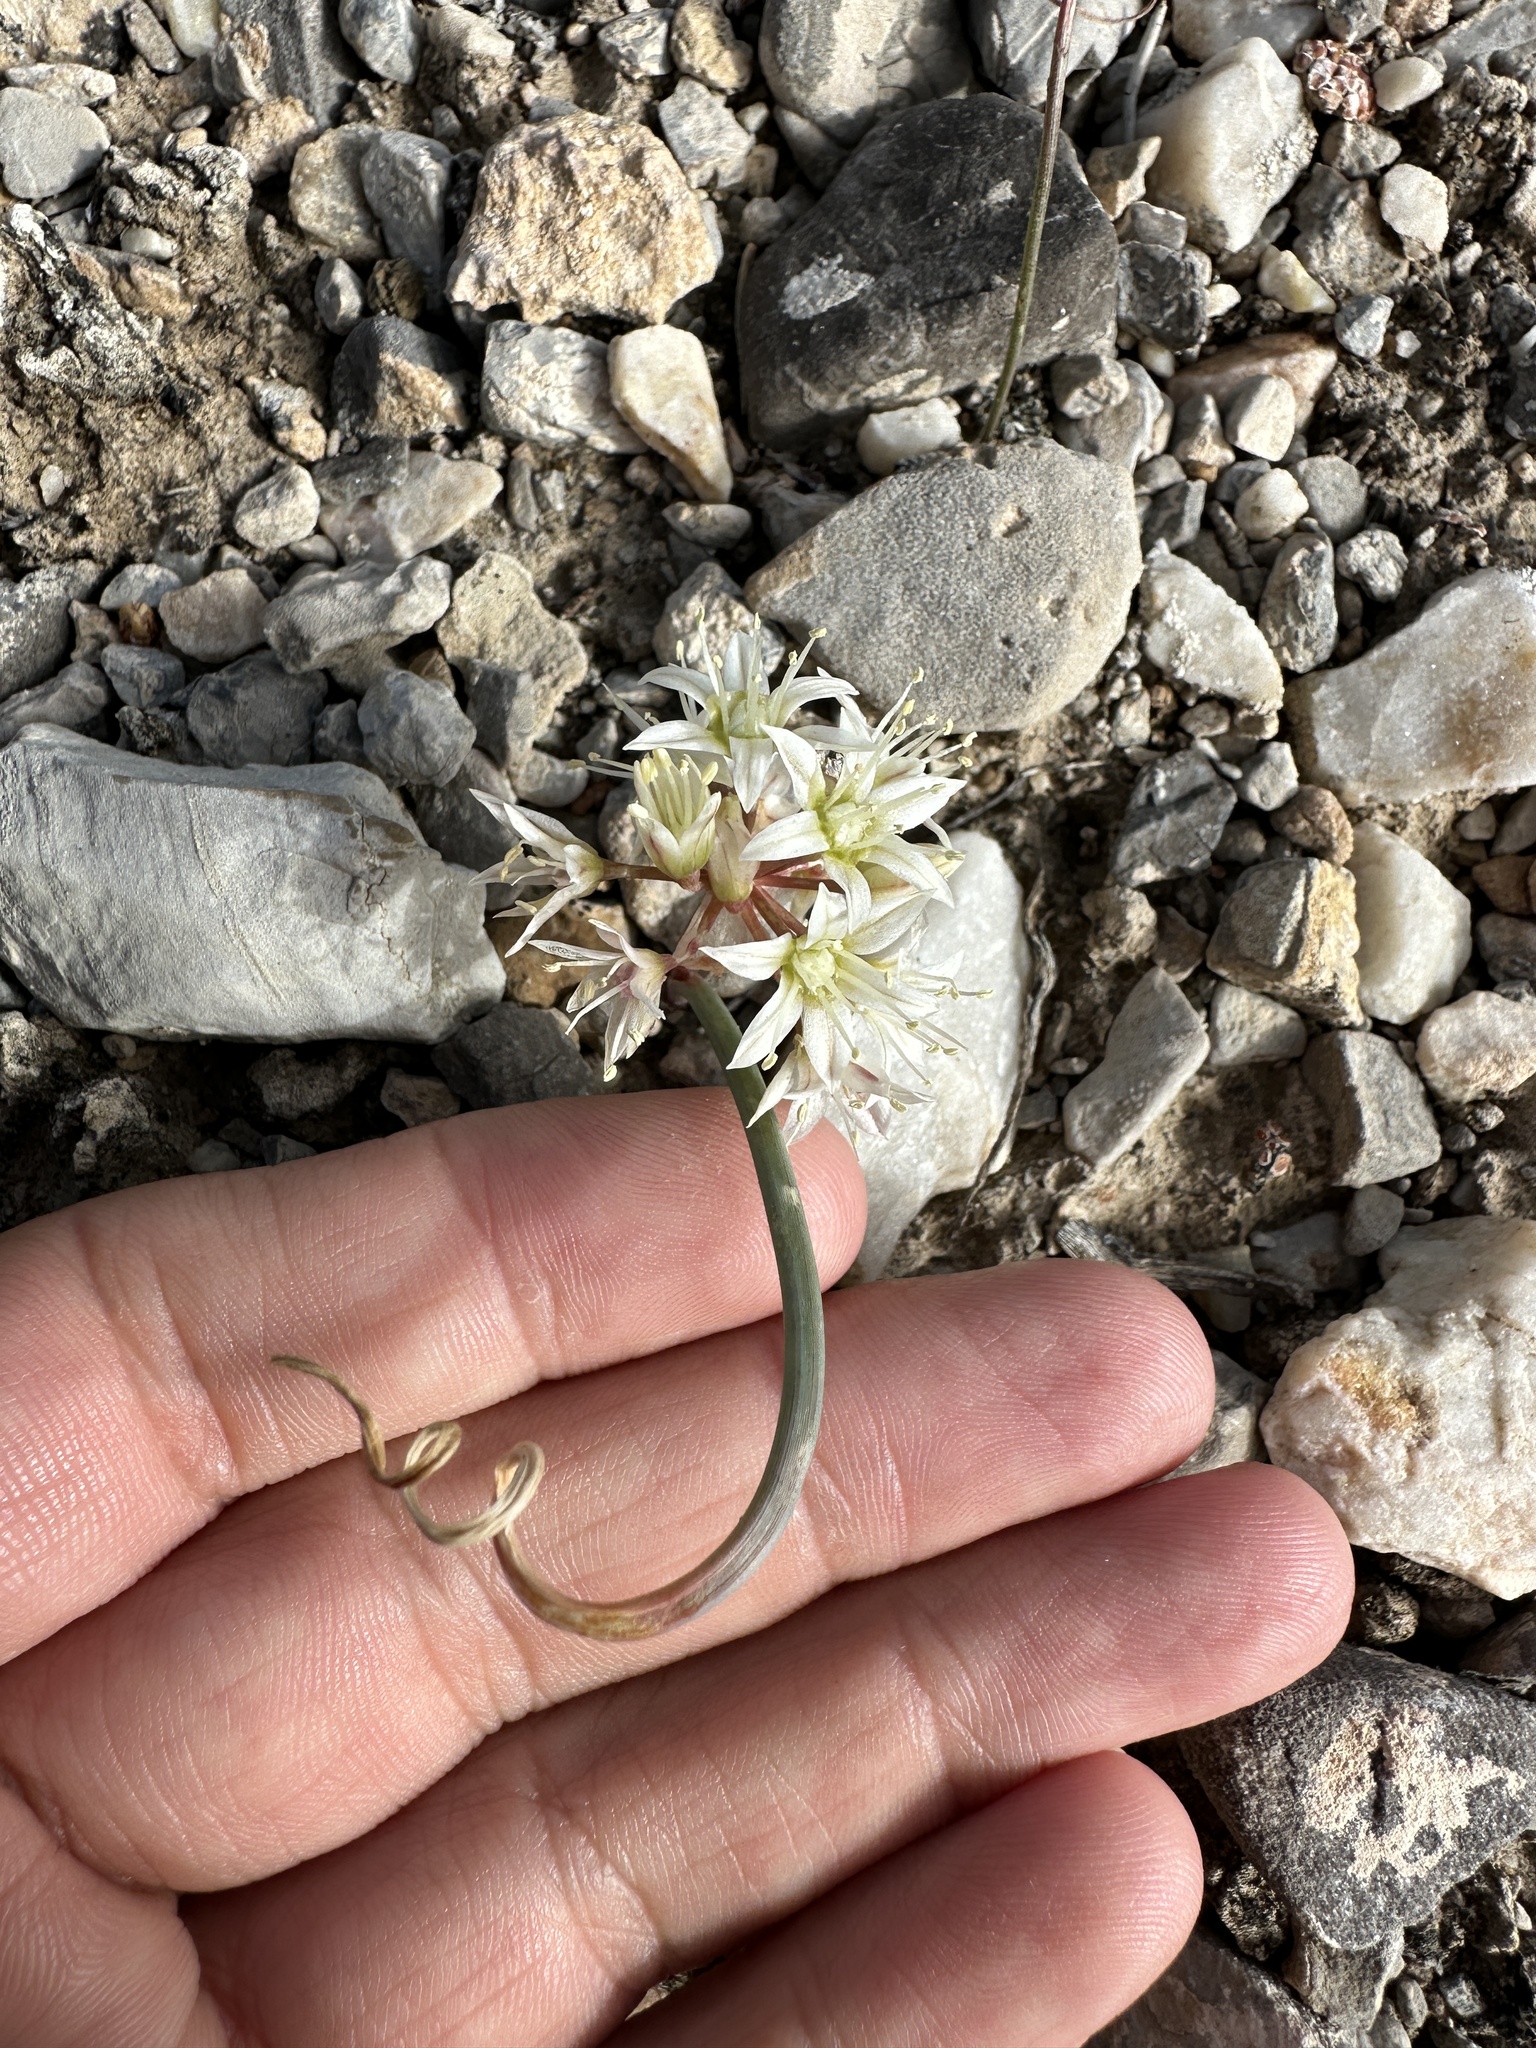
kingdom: Plantae
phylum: Tracheophyta
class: Liliopsida
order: Asparagales
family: Amaryllidaceae
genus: Allium
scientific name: Allium nevadense
